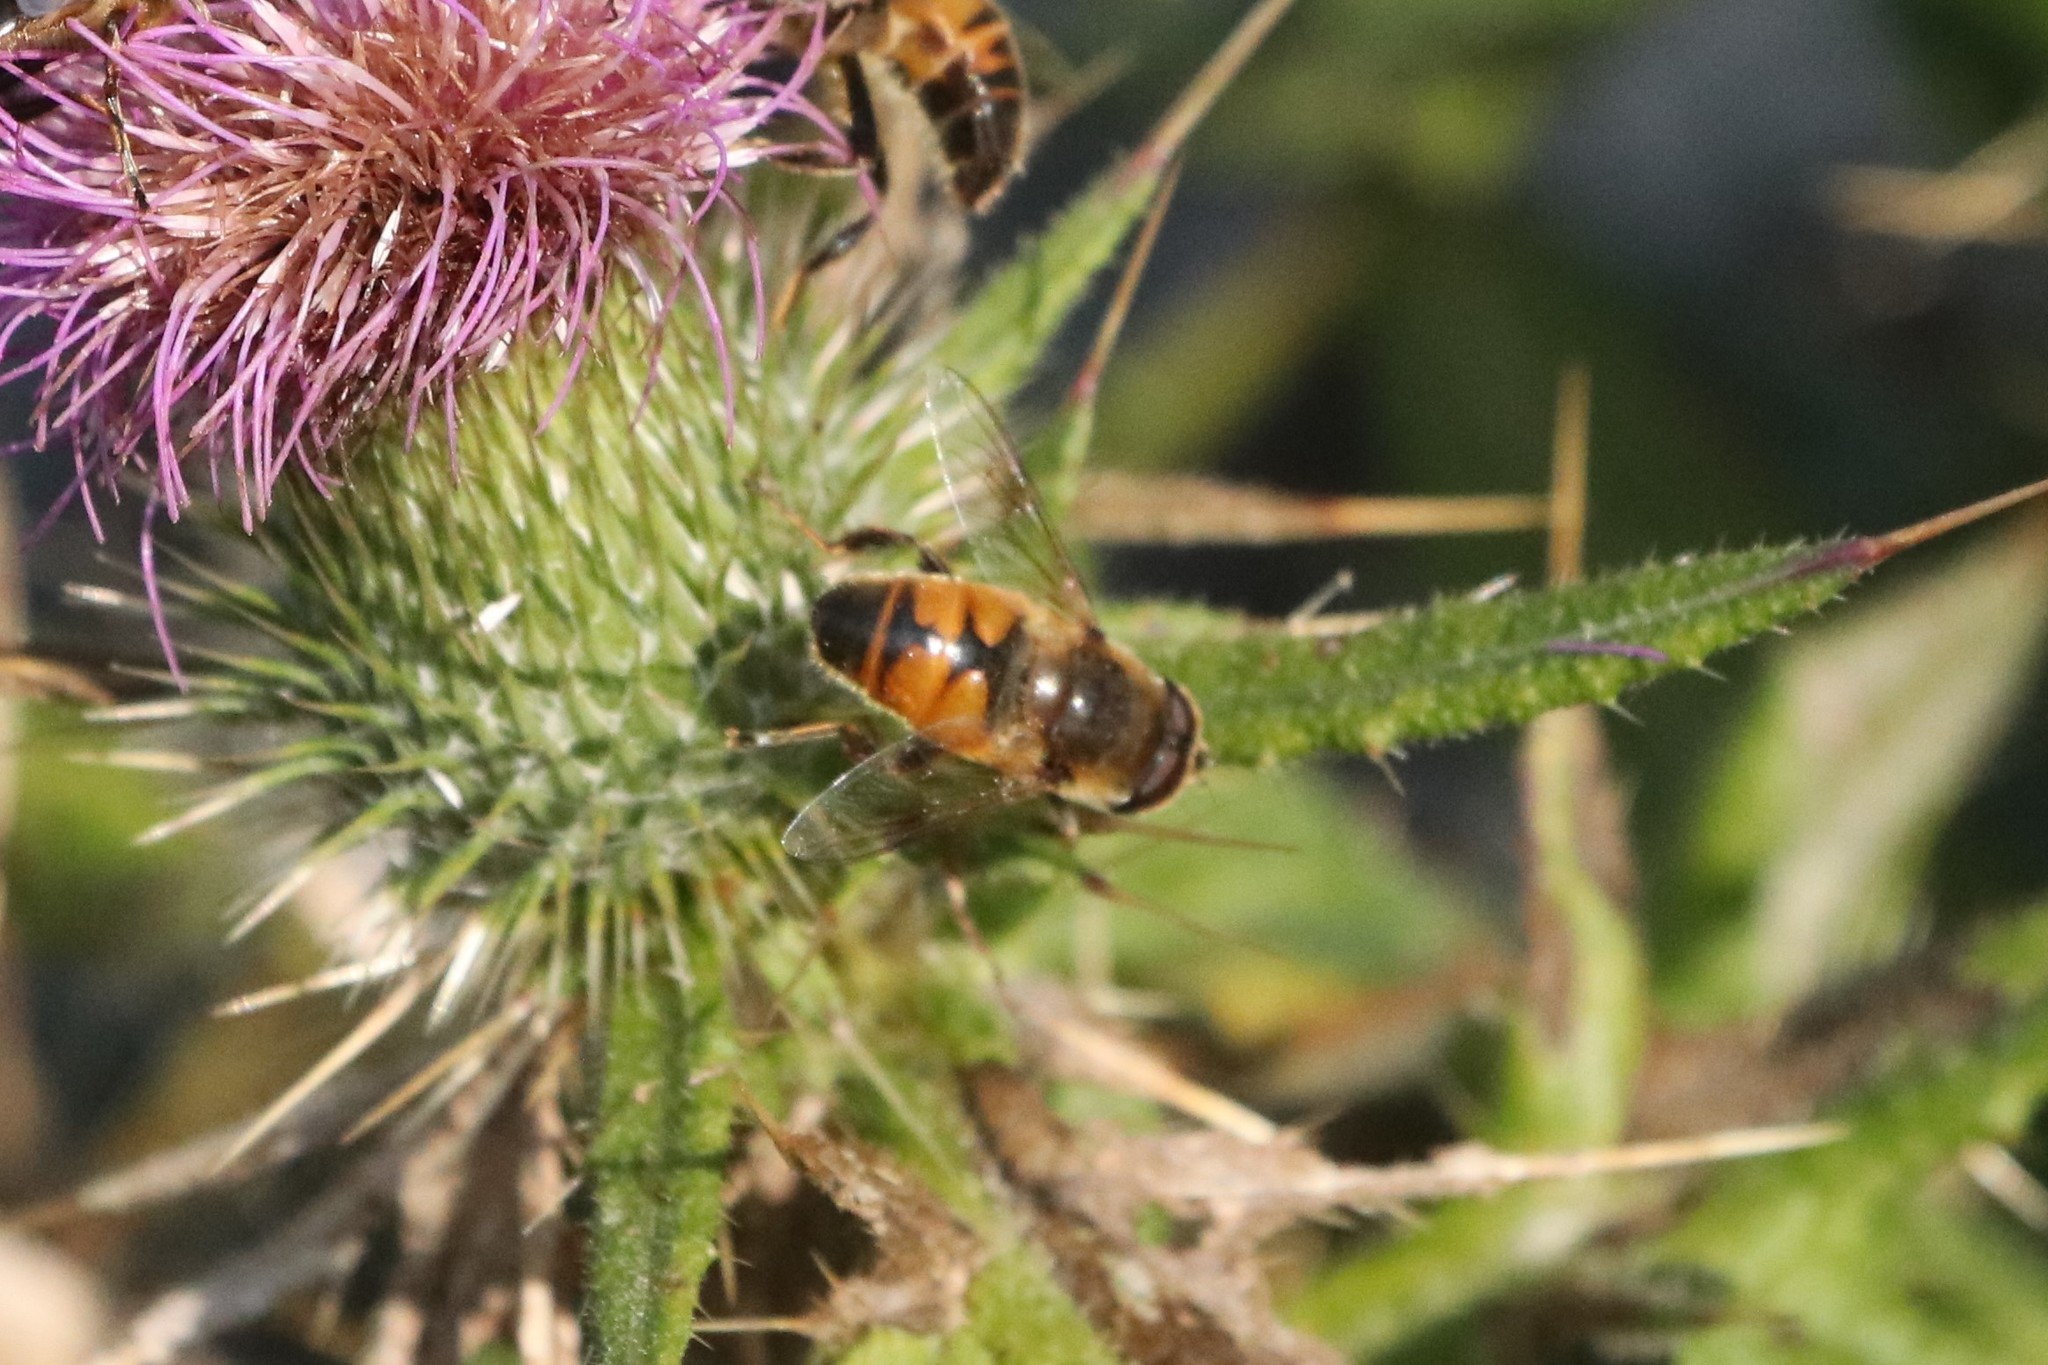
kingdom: Animalia
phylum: Arthropoda
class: Insecta
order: Diptera
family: Syrphidae
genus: Eristalis
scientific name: Eristalis tenax
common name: Drone fly
